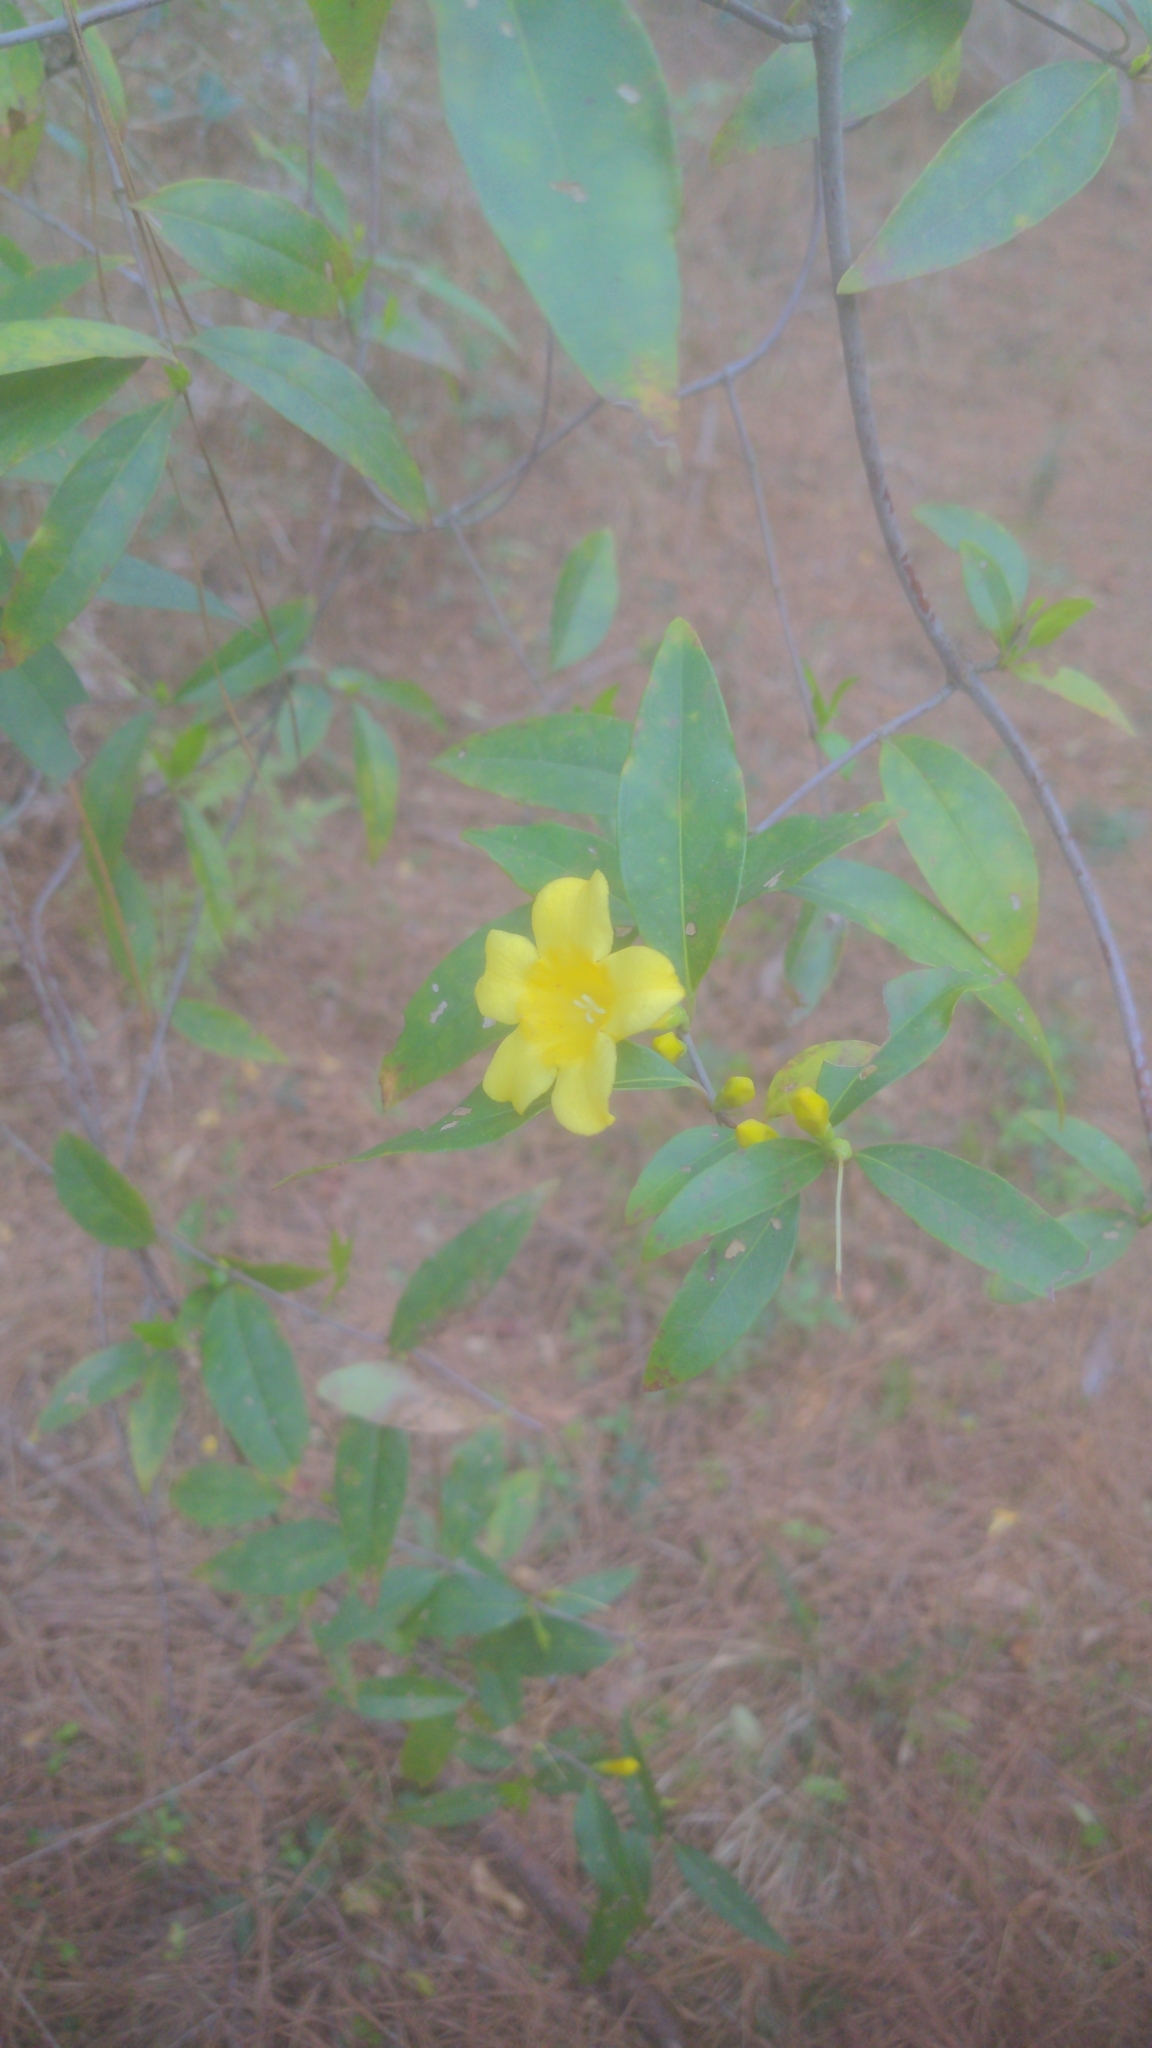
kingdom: Plantae
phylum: Tracheophyta
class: Magnoliopsida
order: Gentianales
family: Gelsemiaceae
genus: Gelsemium
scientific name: Gelsemium sempervirens
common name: Carolina-jasmine
